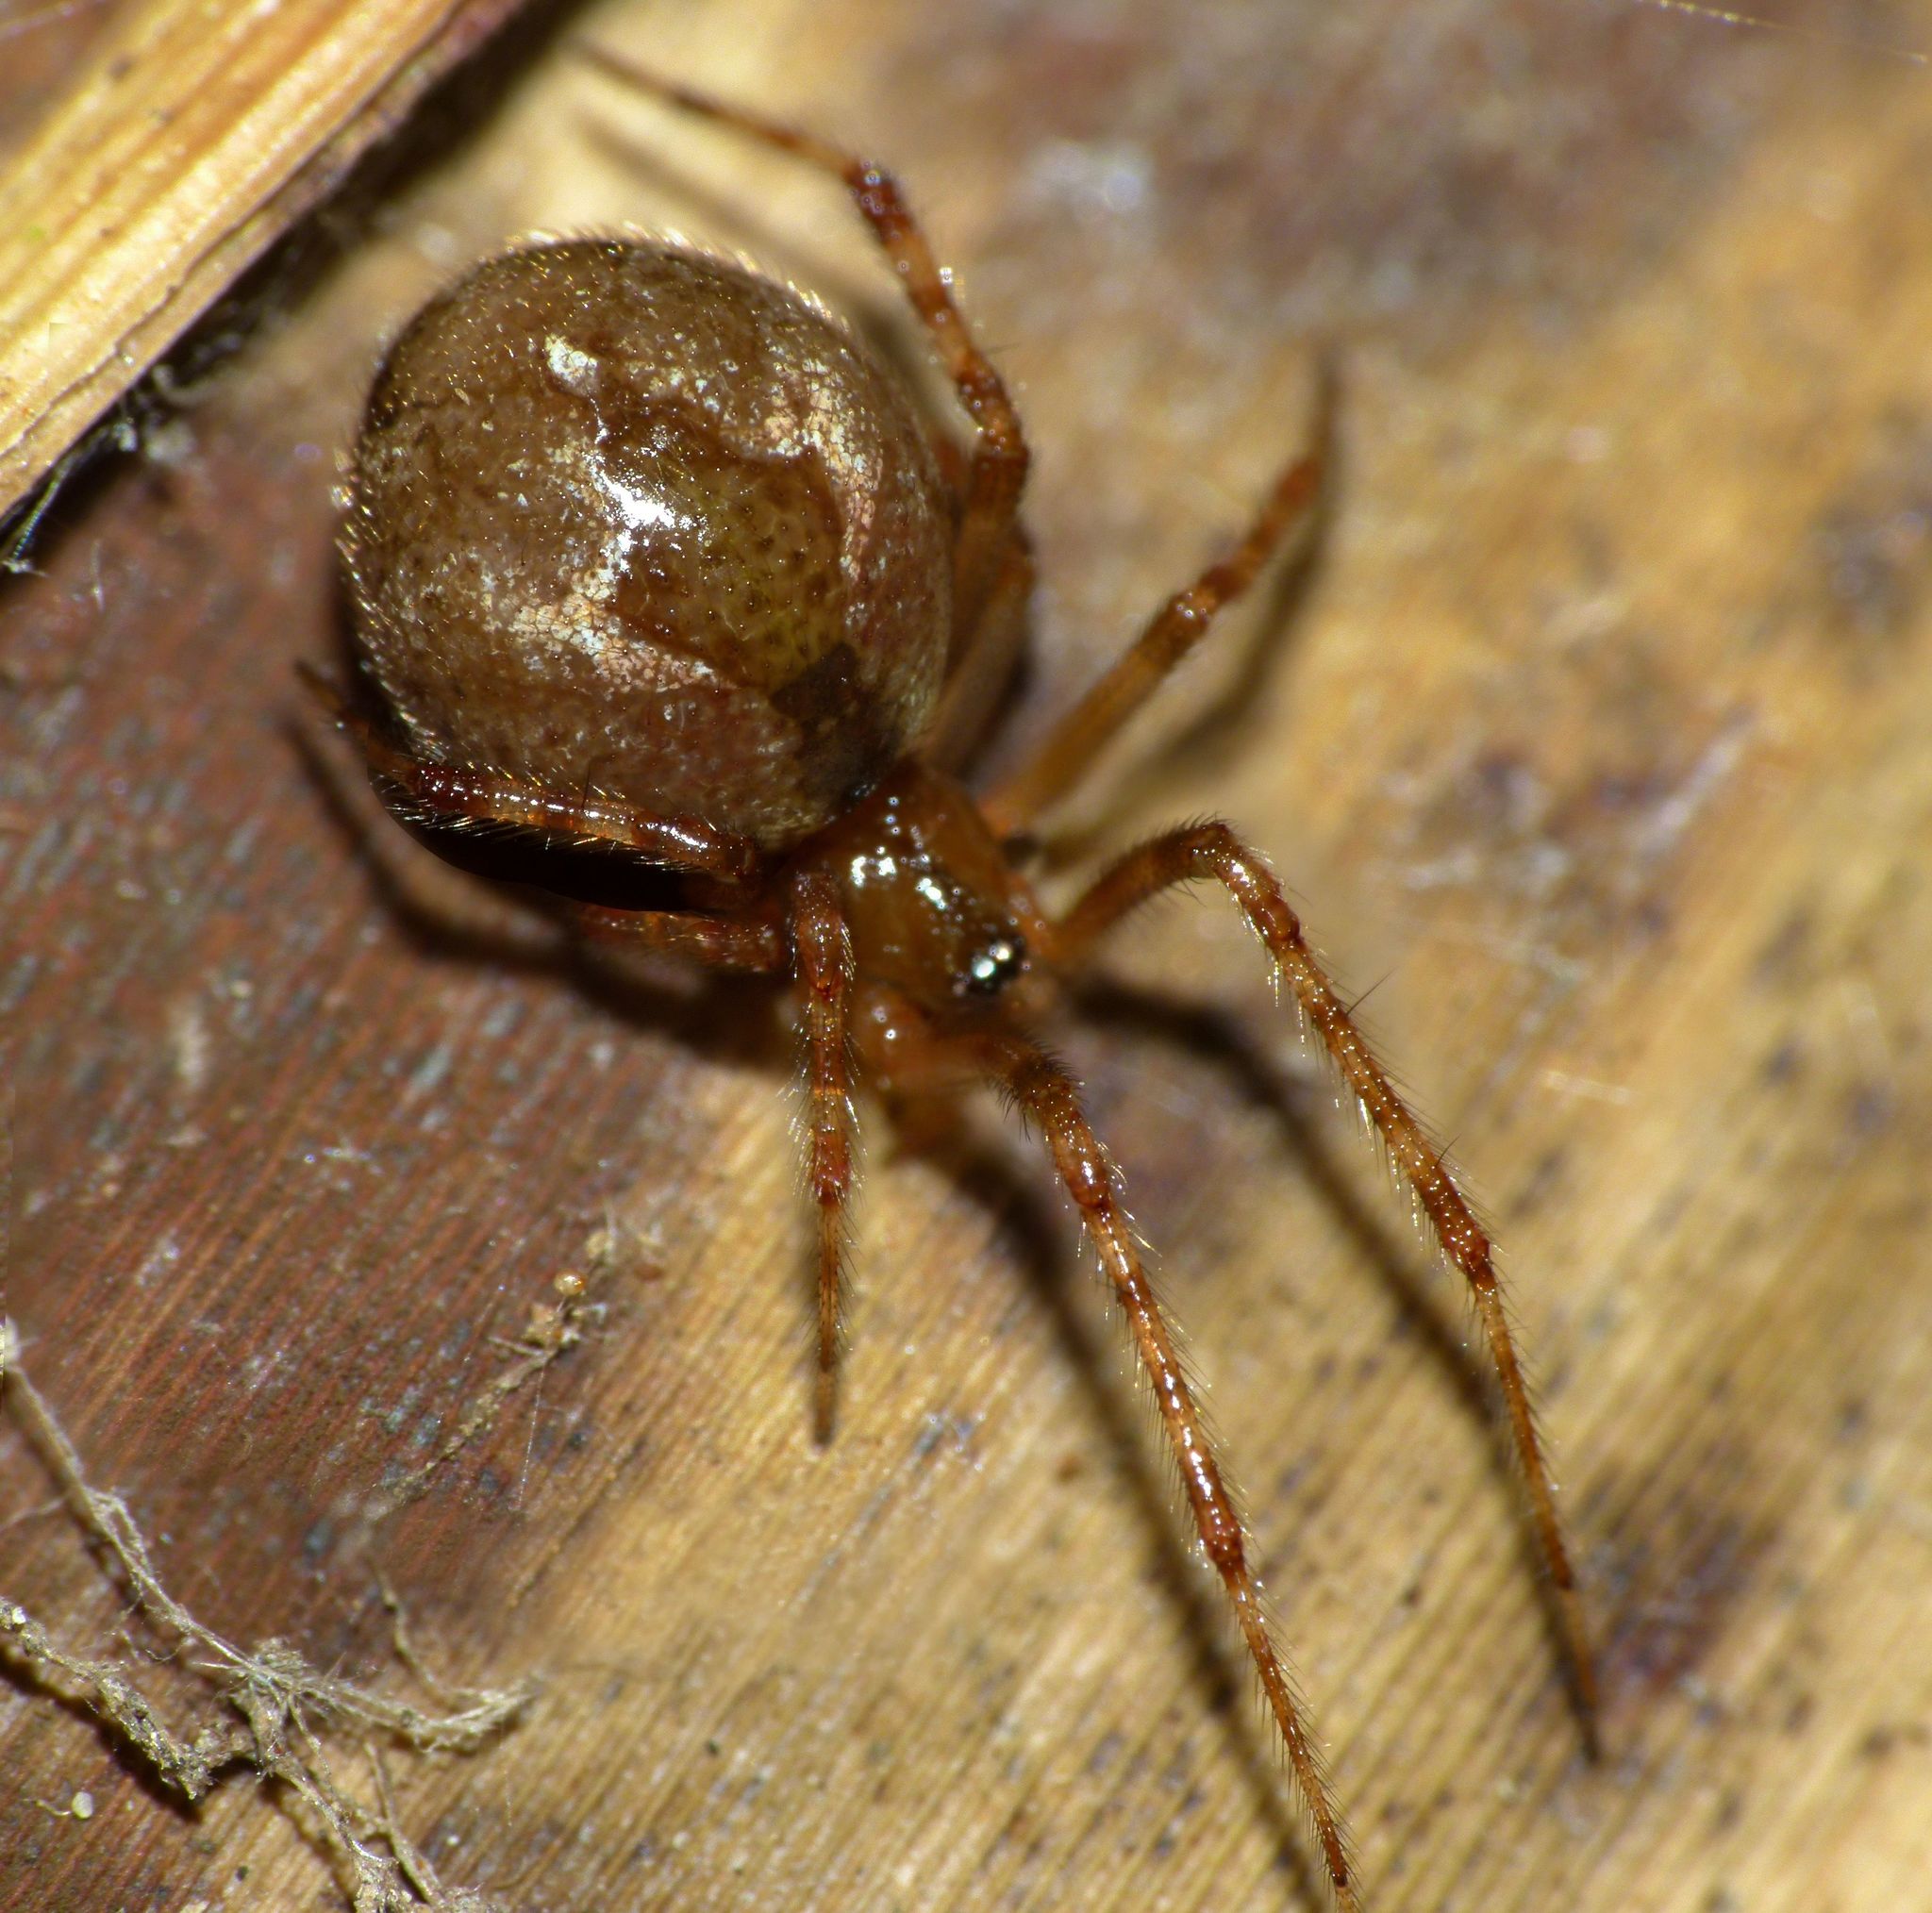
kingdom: Animalia
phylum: Arthropoda
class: Arachnida
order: Araneae
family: Theridiidae
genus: Cryptachaea
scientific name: Cryptachaea veruculata
